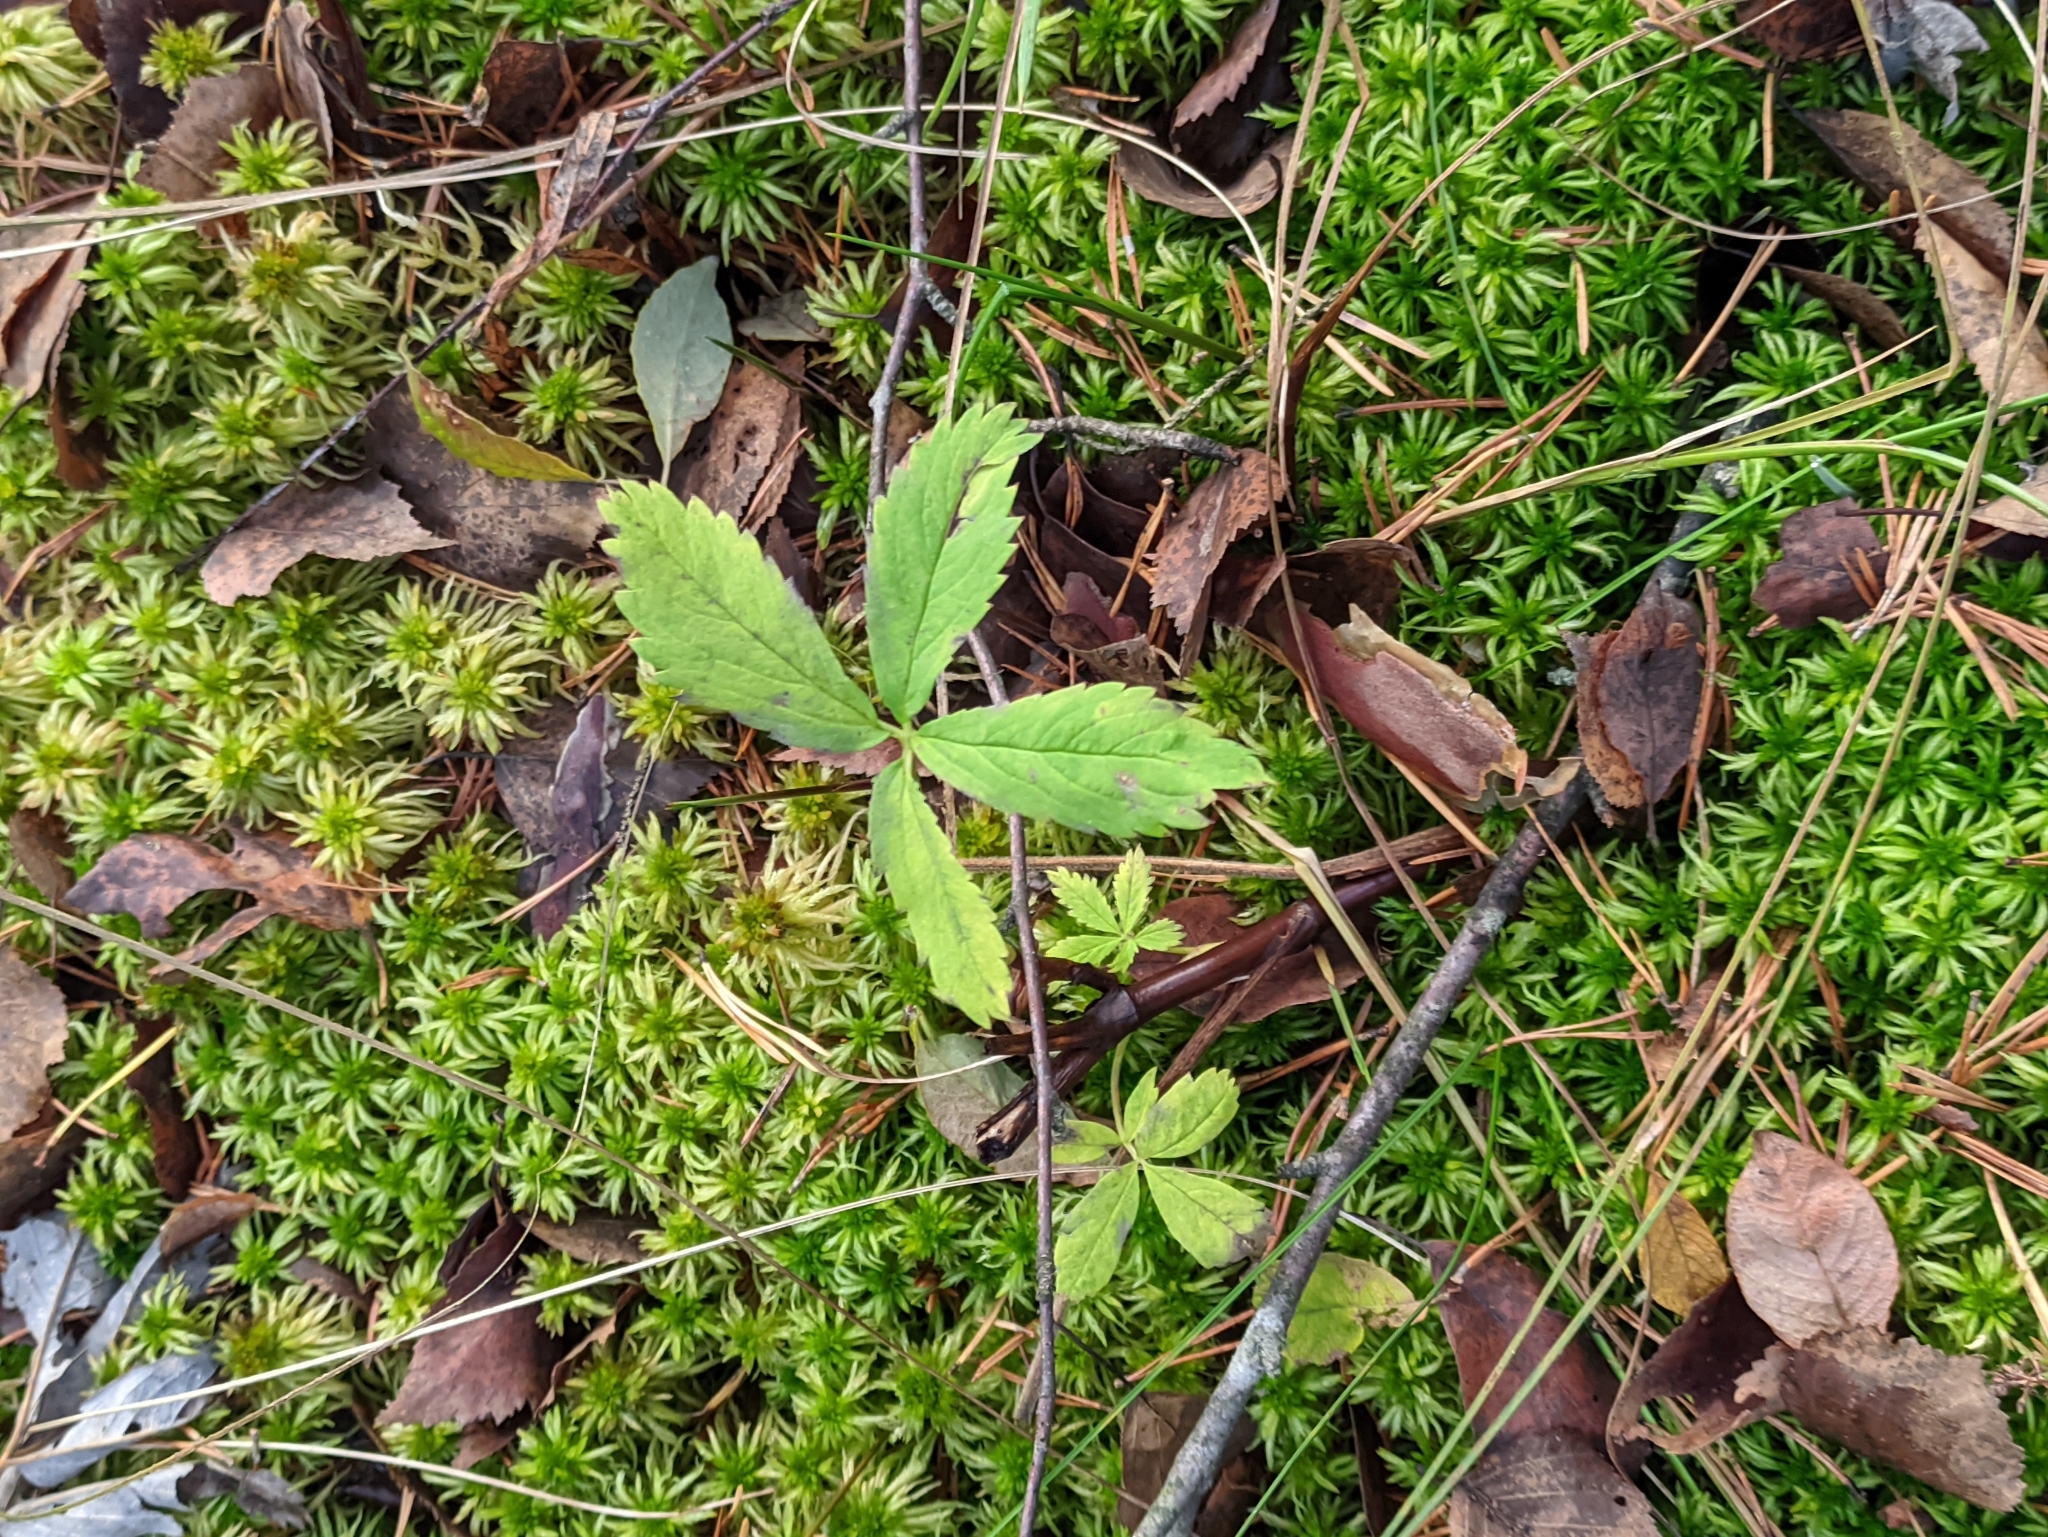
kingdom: Plantae
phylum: Tracheophyta
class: Magnoliopsida
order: Rosales
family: Rosaceae
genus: Comarum
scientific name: Comarum palustre
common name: Marsh cinquefoil
